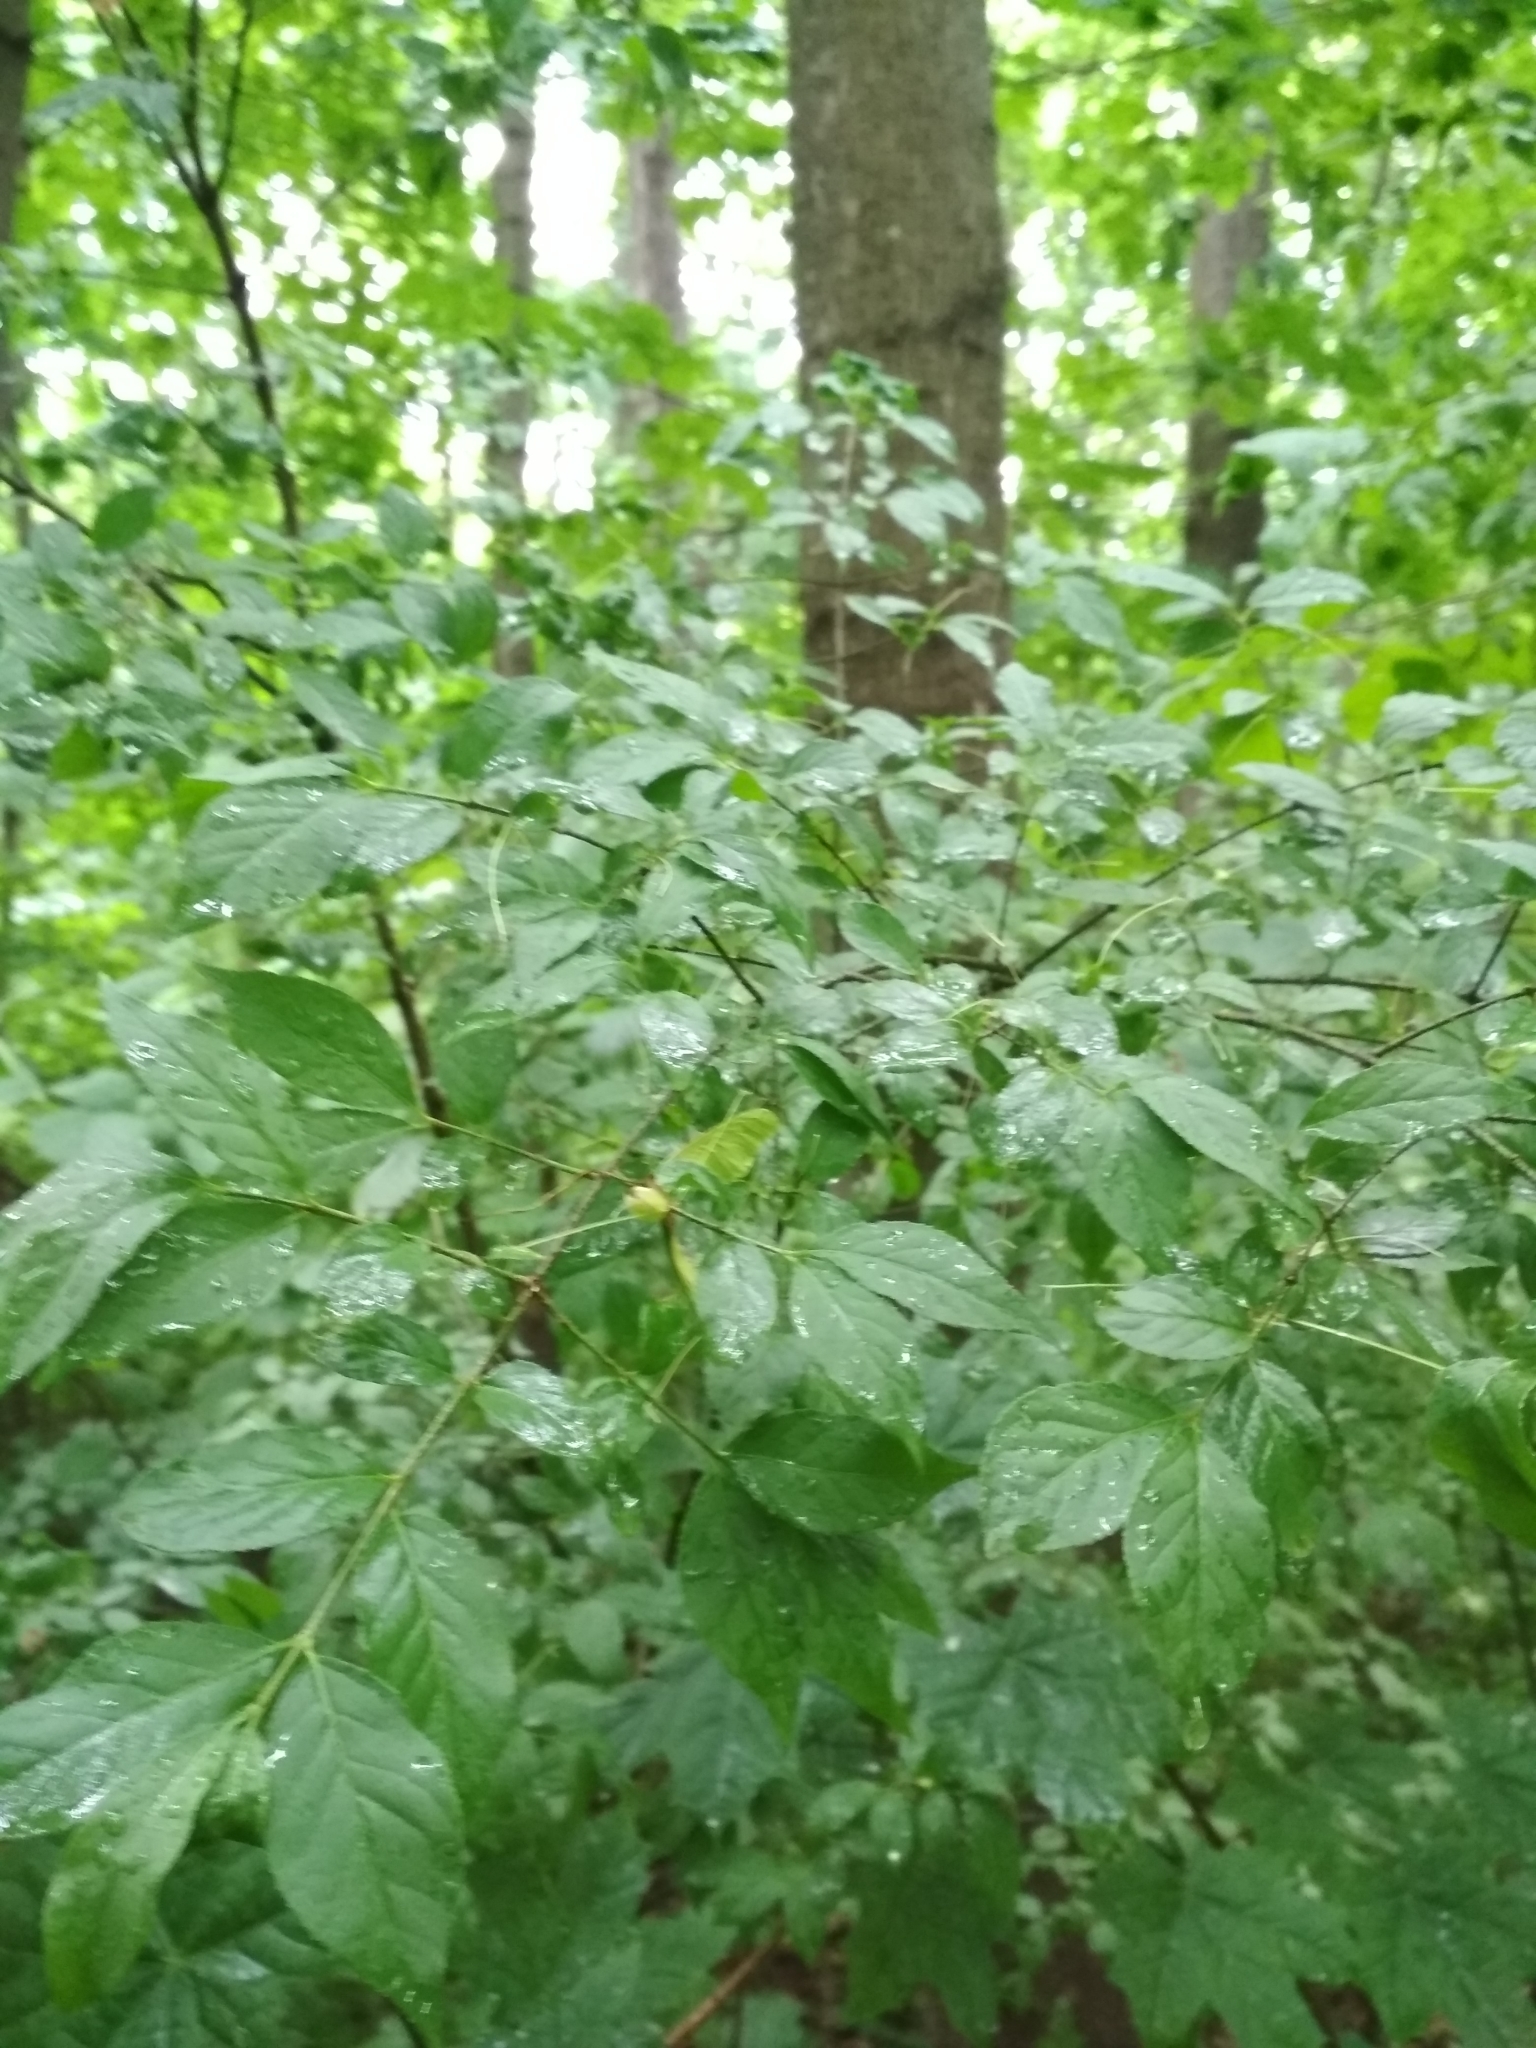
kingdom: Plantae
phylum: Tracheophyta
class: Magnoliopsida
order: Celastrales
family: Celastraceae
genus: Euonymus
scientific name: Euonymus verrucosus
